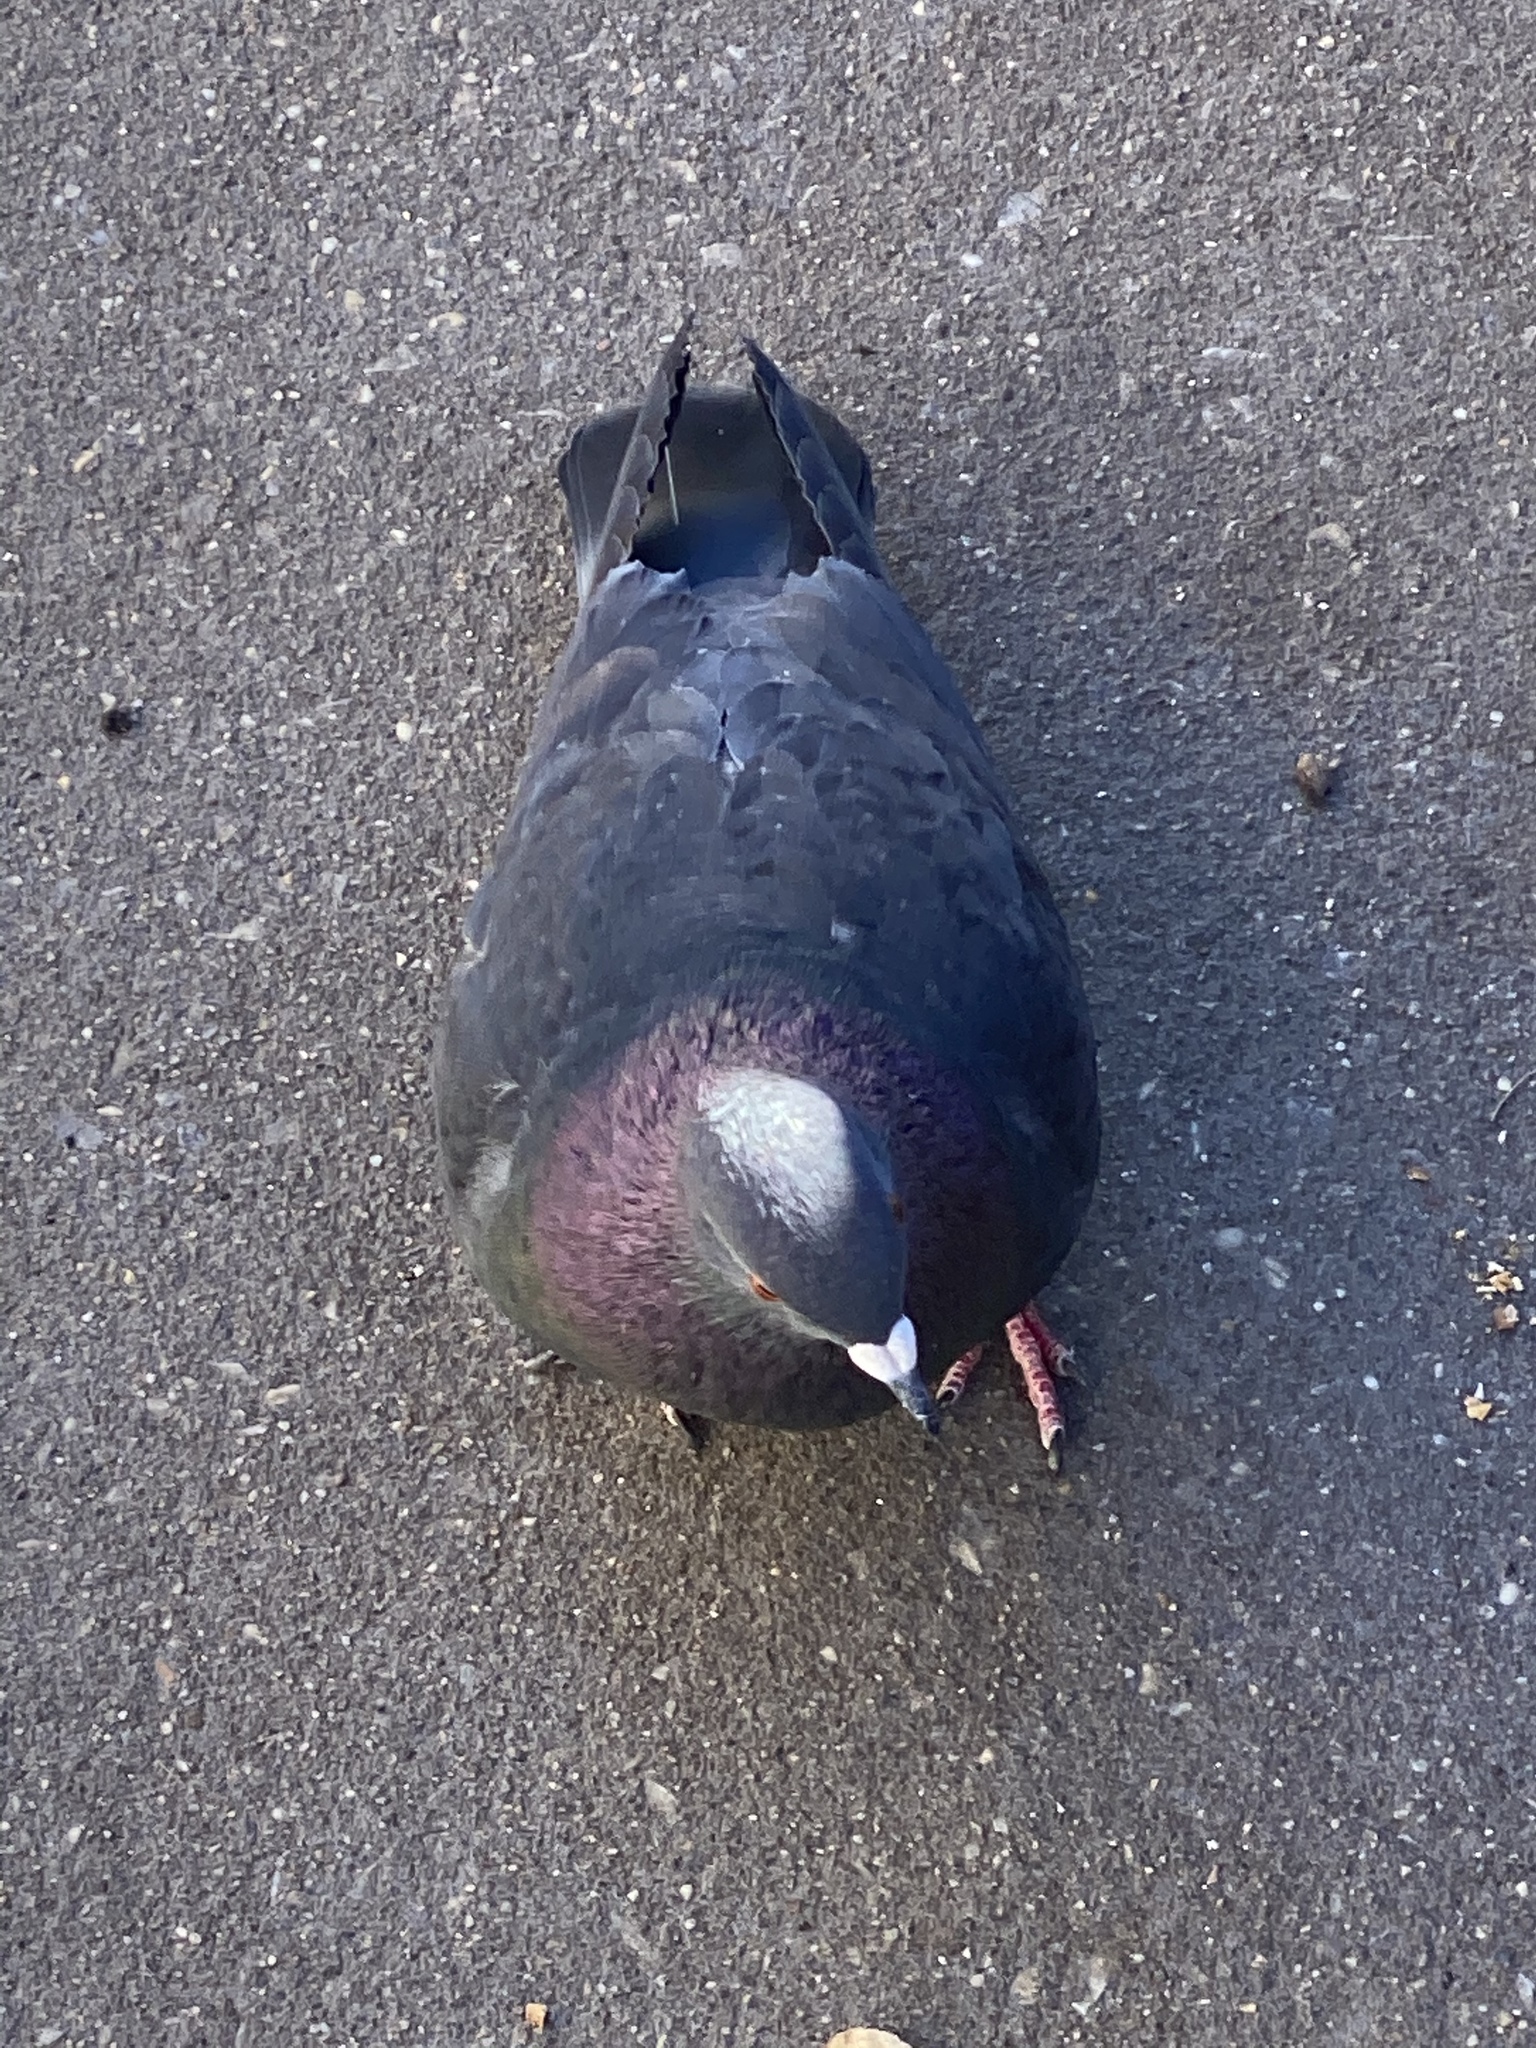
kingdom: Animalia
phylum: Chordata
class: Aves
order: Columbiformes
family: Columbidae
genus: Columba
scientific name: Columba livia
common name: Rock pigeon
